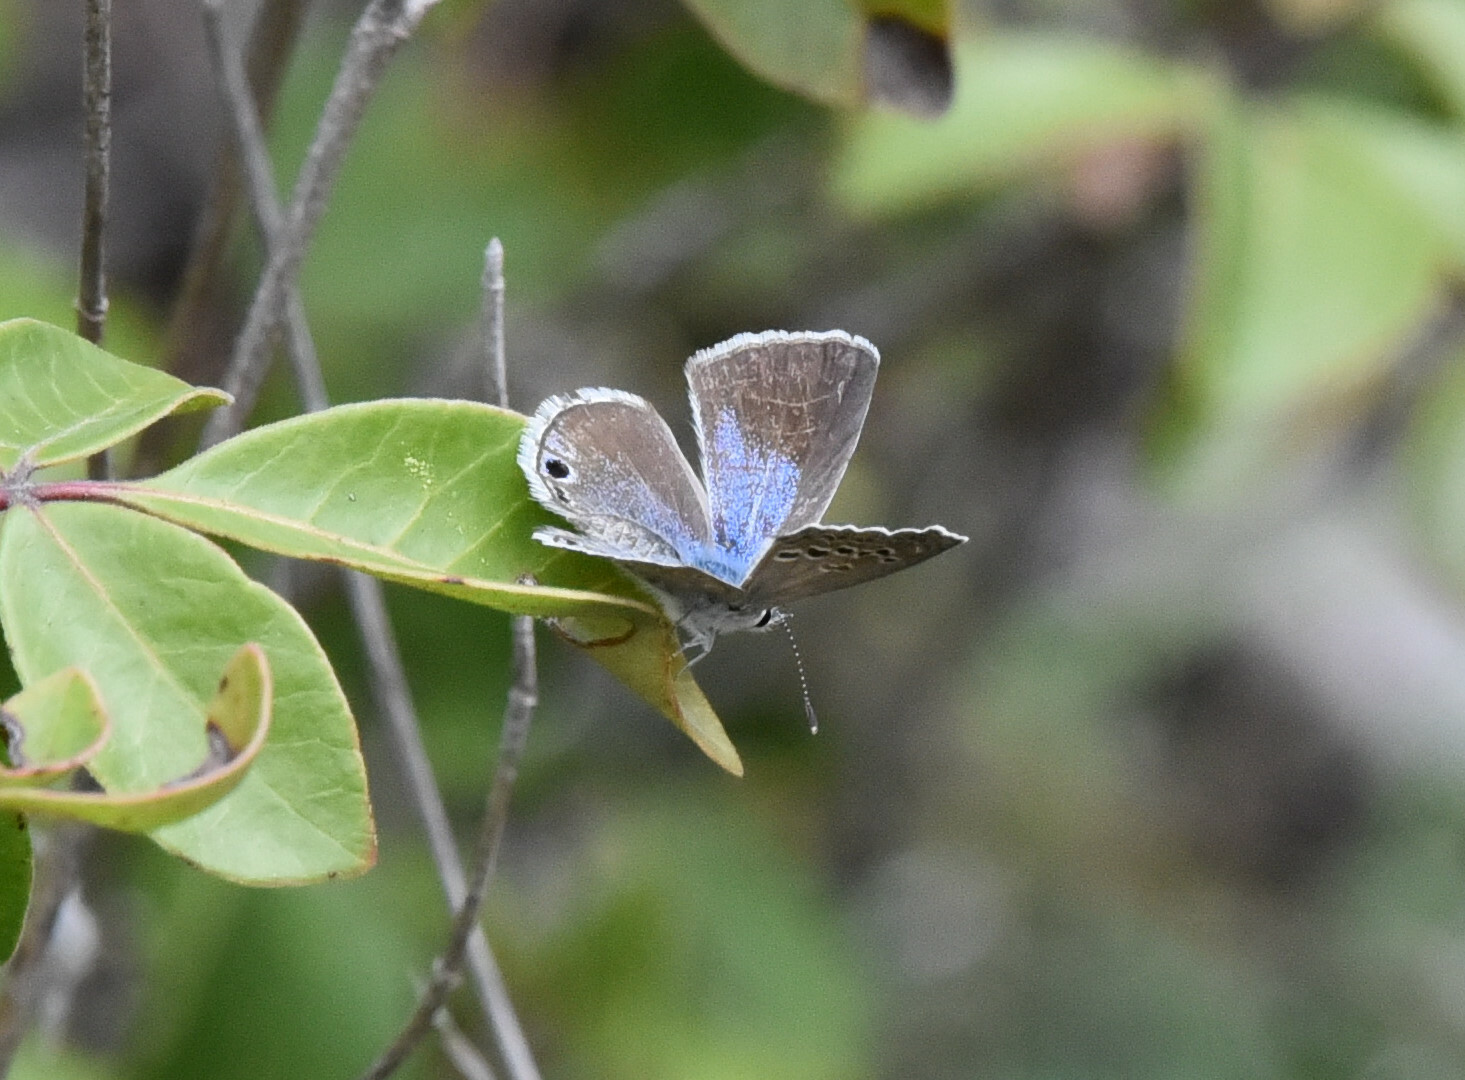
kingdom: Animalia
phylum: Arthropoda
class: Insecta
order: Lepidoptera
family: Lycaenidae
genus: Echinargus
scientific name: Echinargus isola
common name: Reakirt's blue
